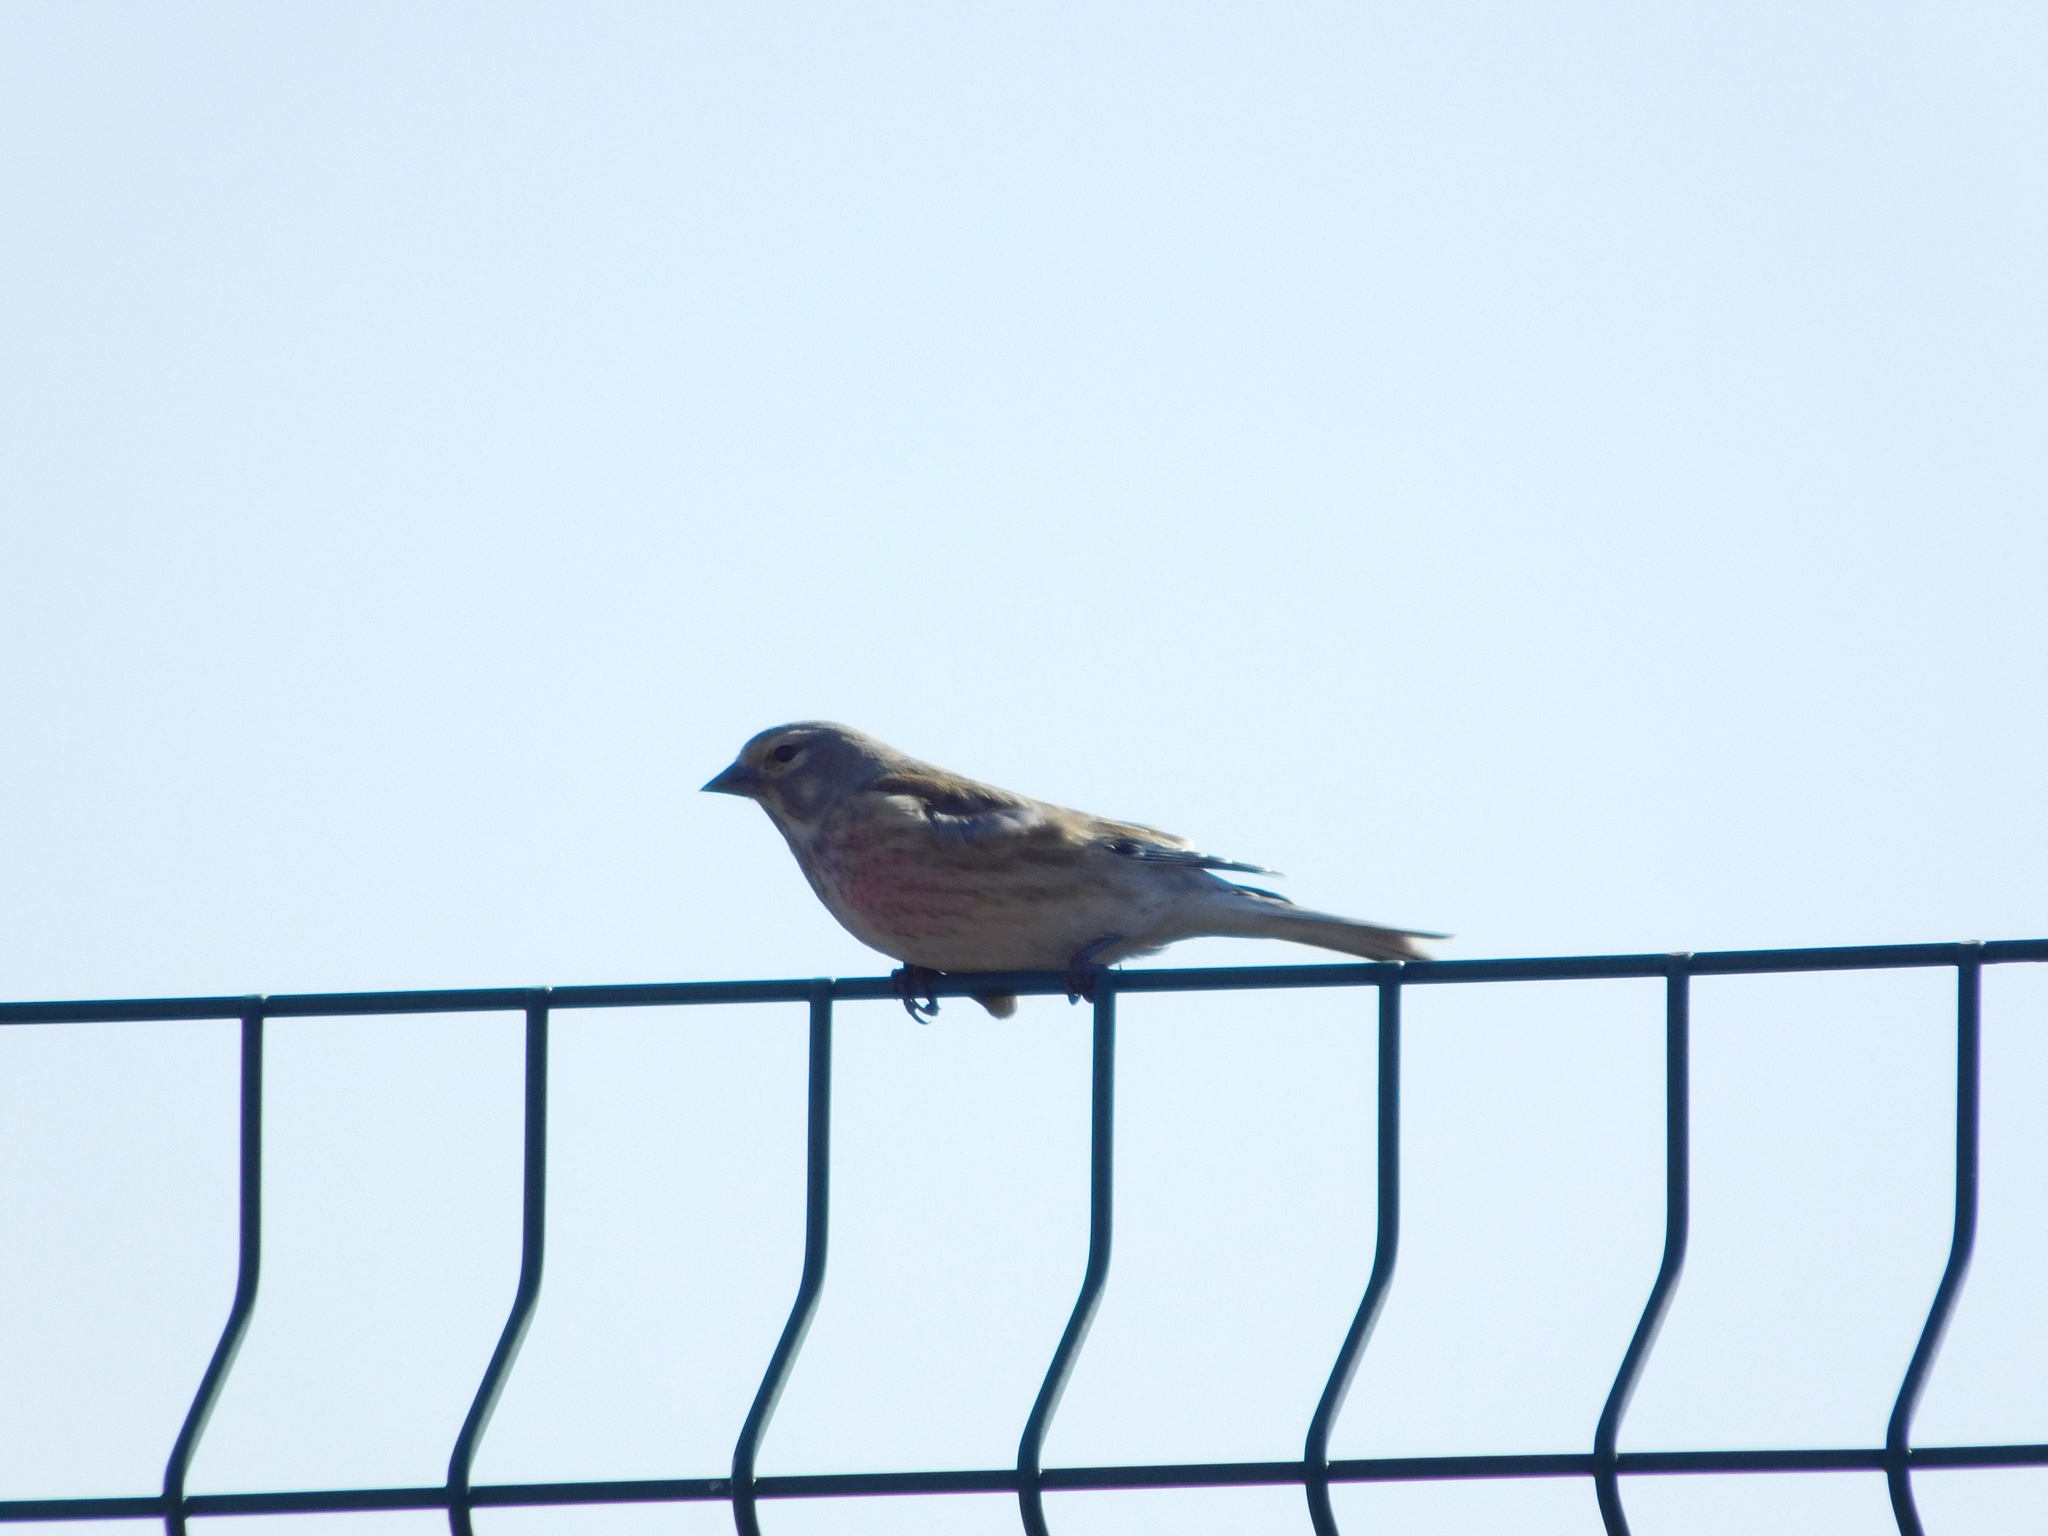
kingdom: Animalia
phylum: Chordata
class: Aves
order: Passeriformes
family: Fringillidae
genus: Linaria
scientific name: Linaria cannabina
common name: Common linnet
